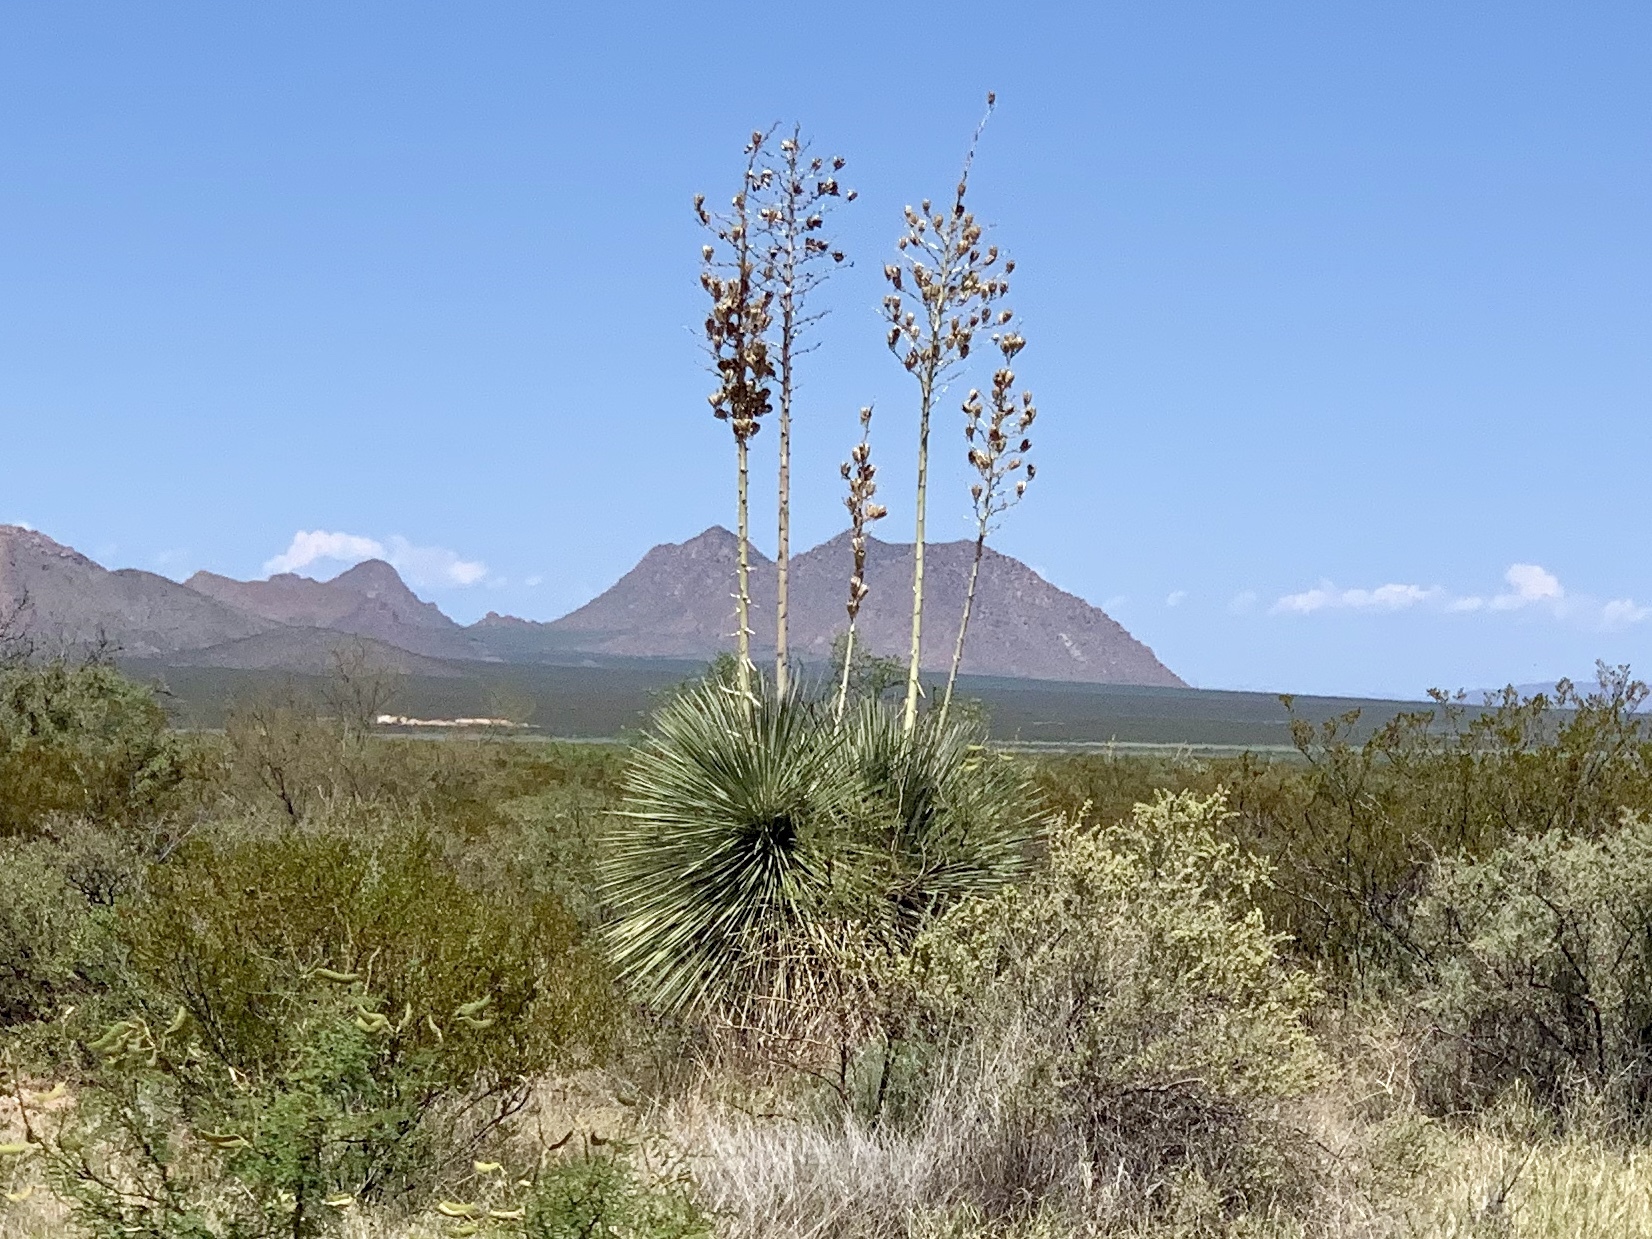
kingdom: Plantae
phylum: Tracheophyta
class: Liliopsida
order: Asparagales
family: Asparagaceae
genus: Yucca
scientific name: Yucca elata
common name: Palmella
